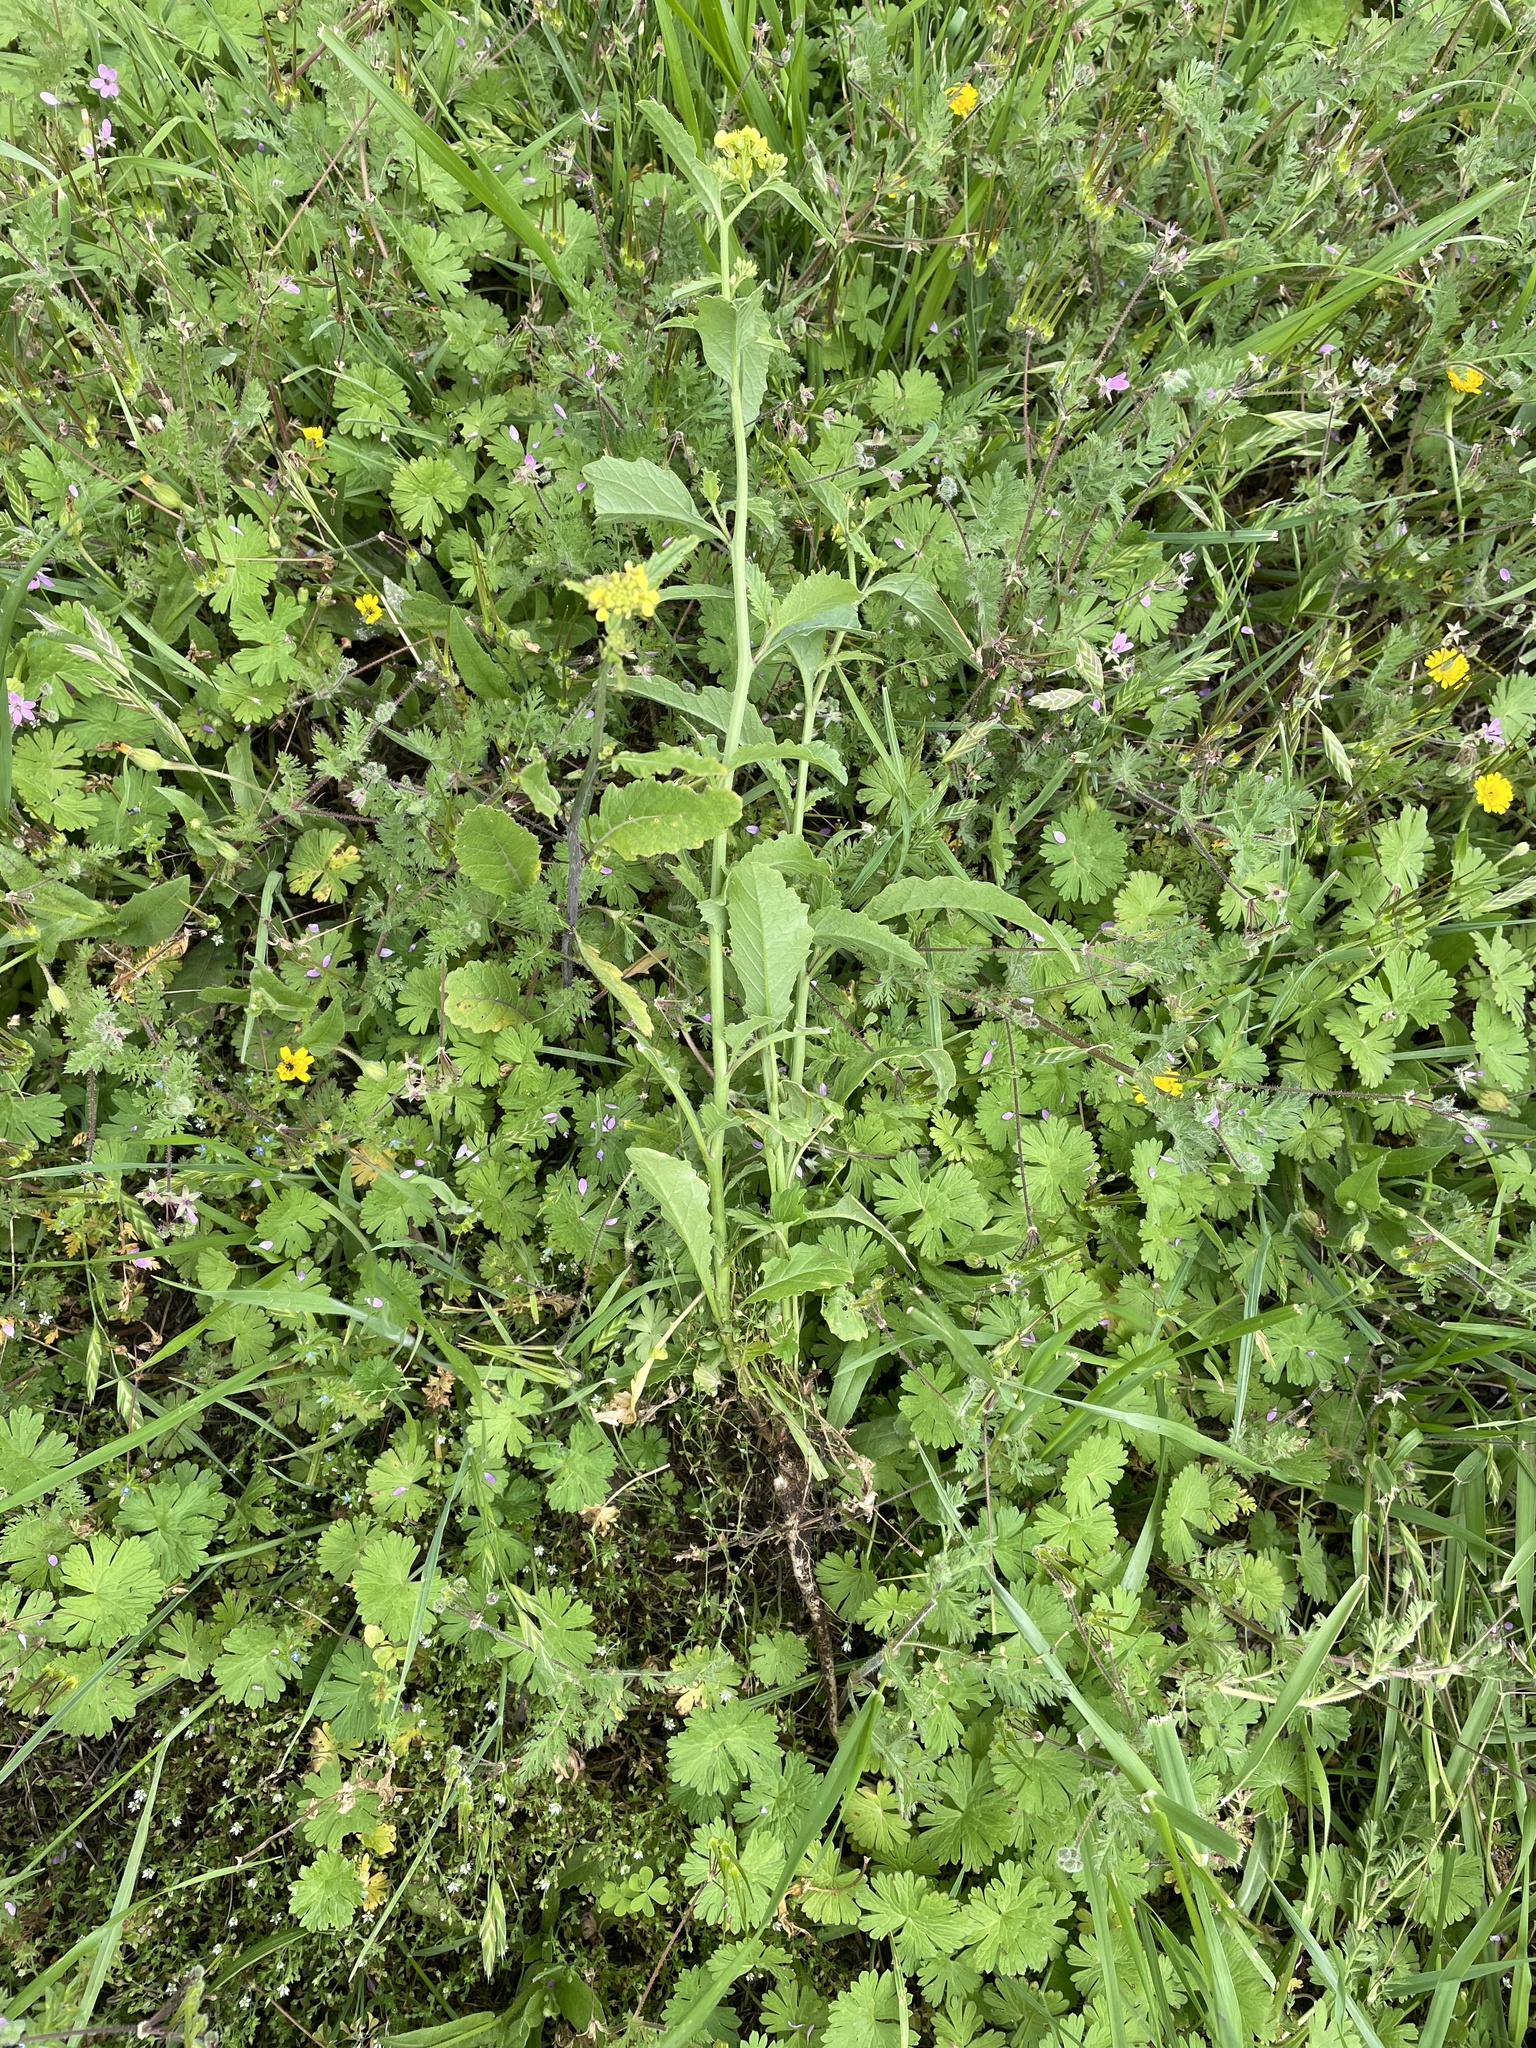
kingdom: Plantae
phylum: Tracheophyta
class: Magnoliopsida
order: Brassicales
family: Brassicaceae
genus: Rapistrum
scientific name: Rapistrum rugosum
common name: Annual bastardcabbage
